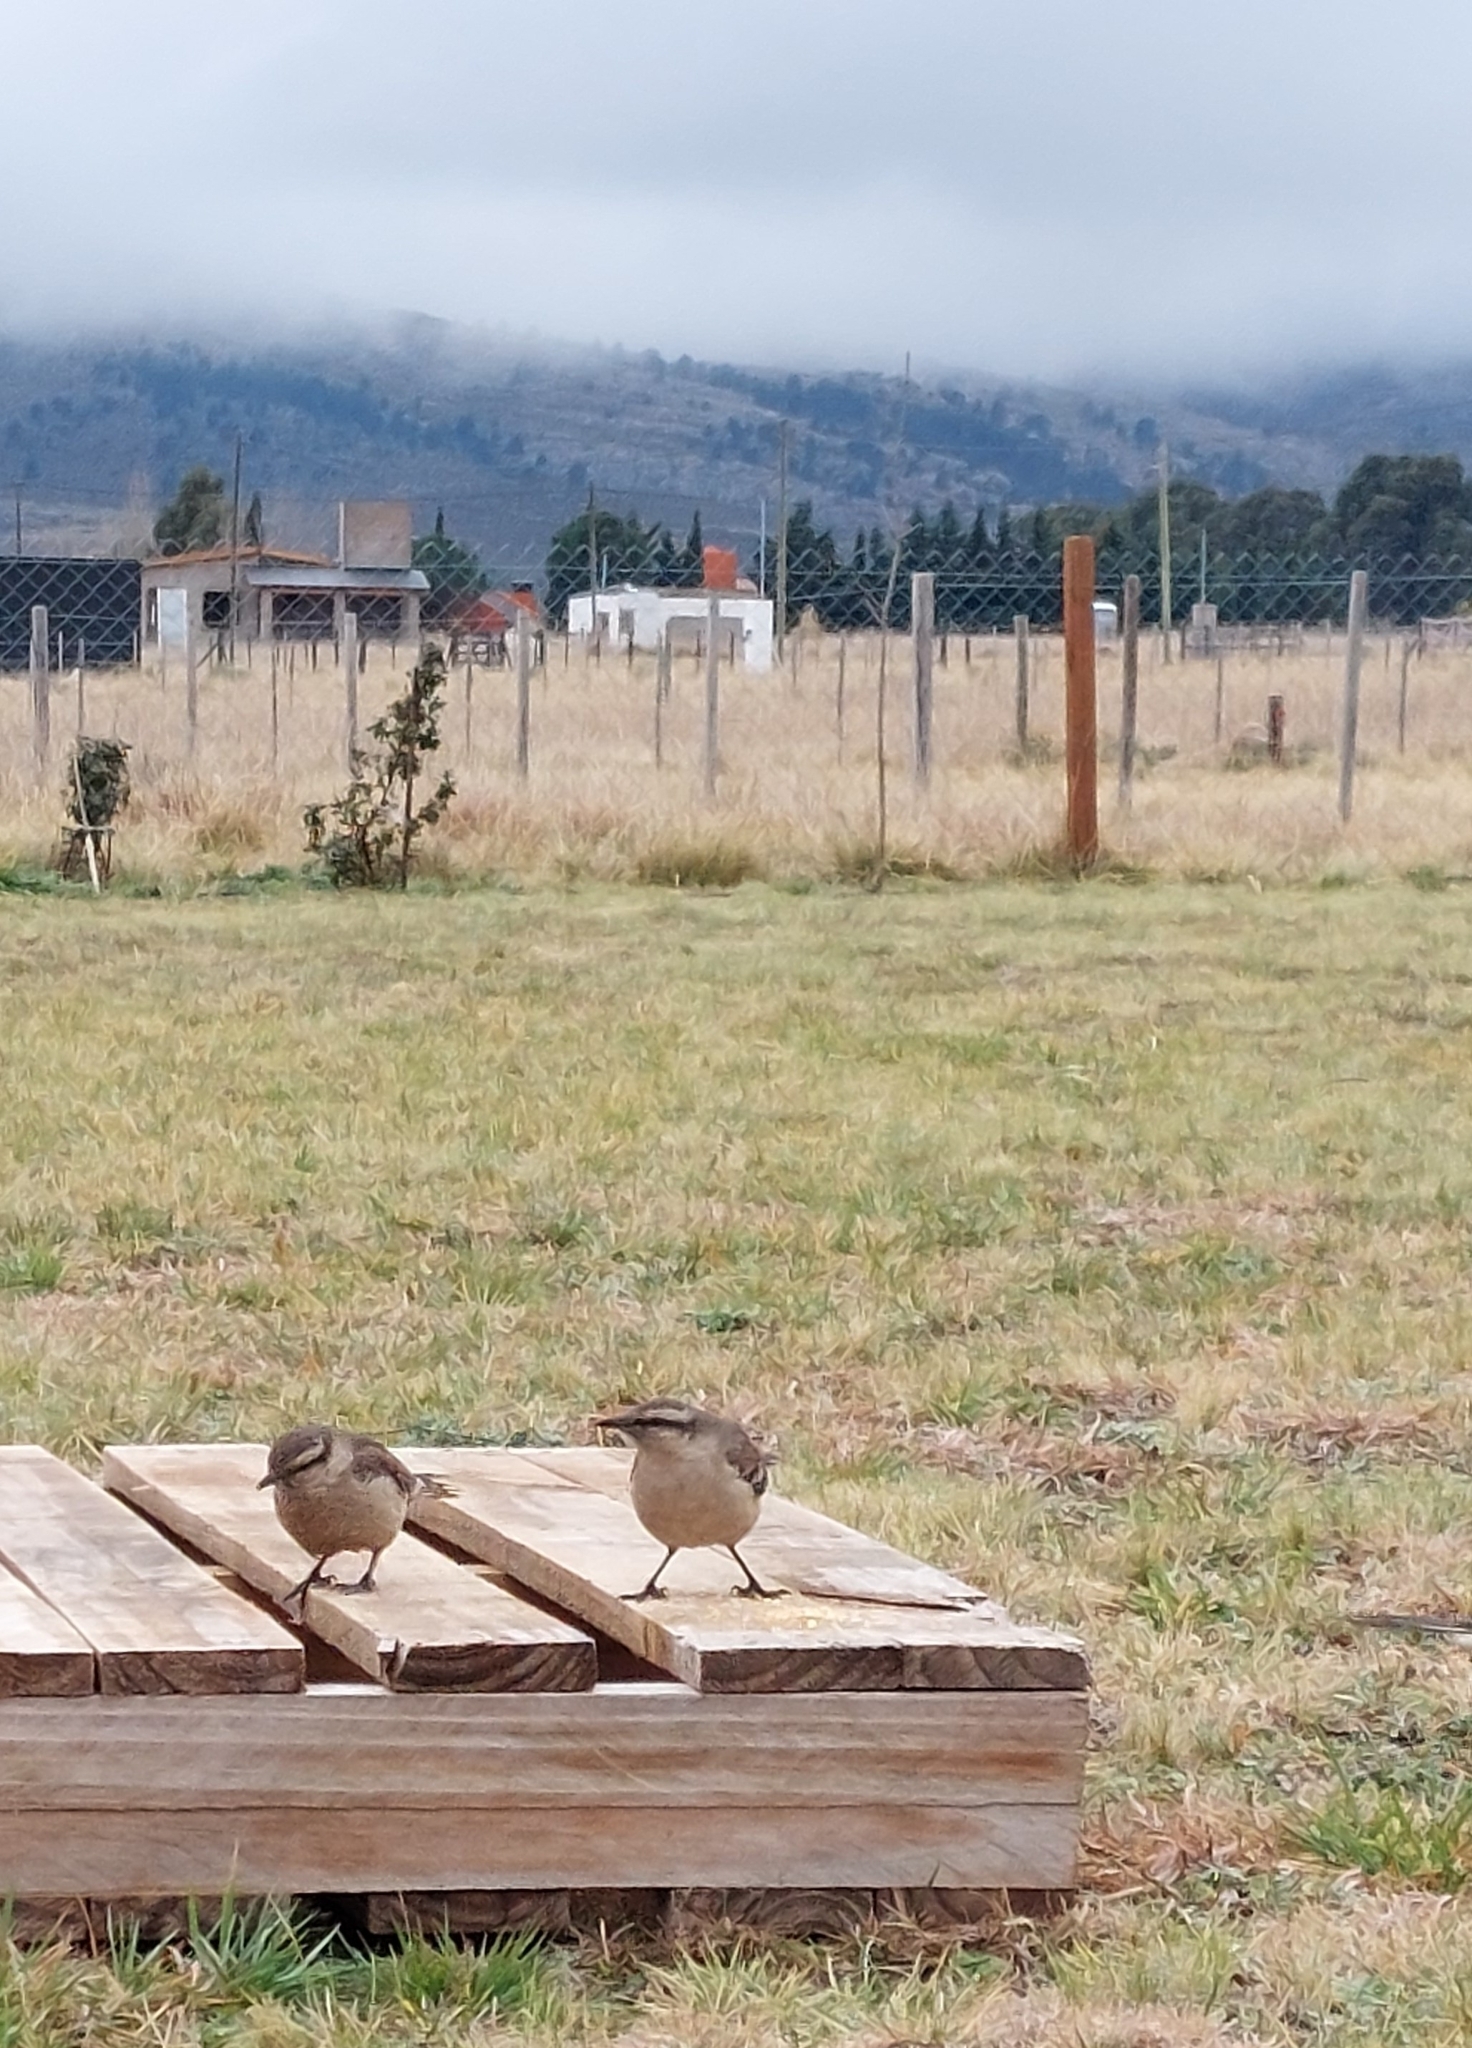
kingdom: Animalia
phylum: Chordata
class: Aves
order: Passeriformes
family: Mimidae
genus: Mimus
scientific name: Mimus saturninus
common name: Chalk-browed mockingbird
